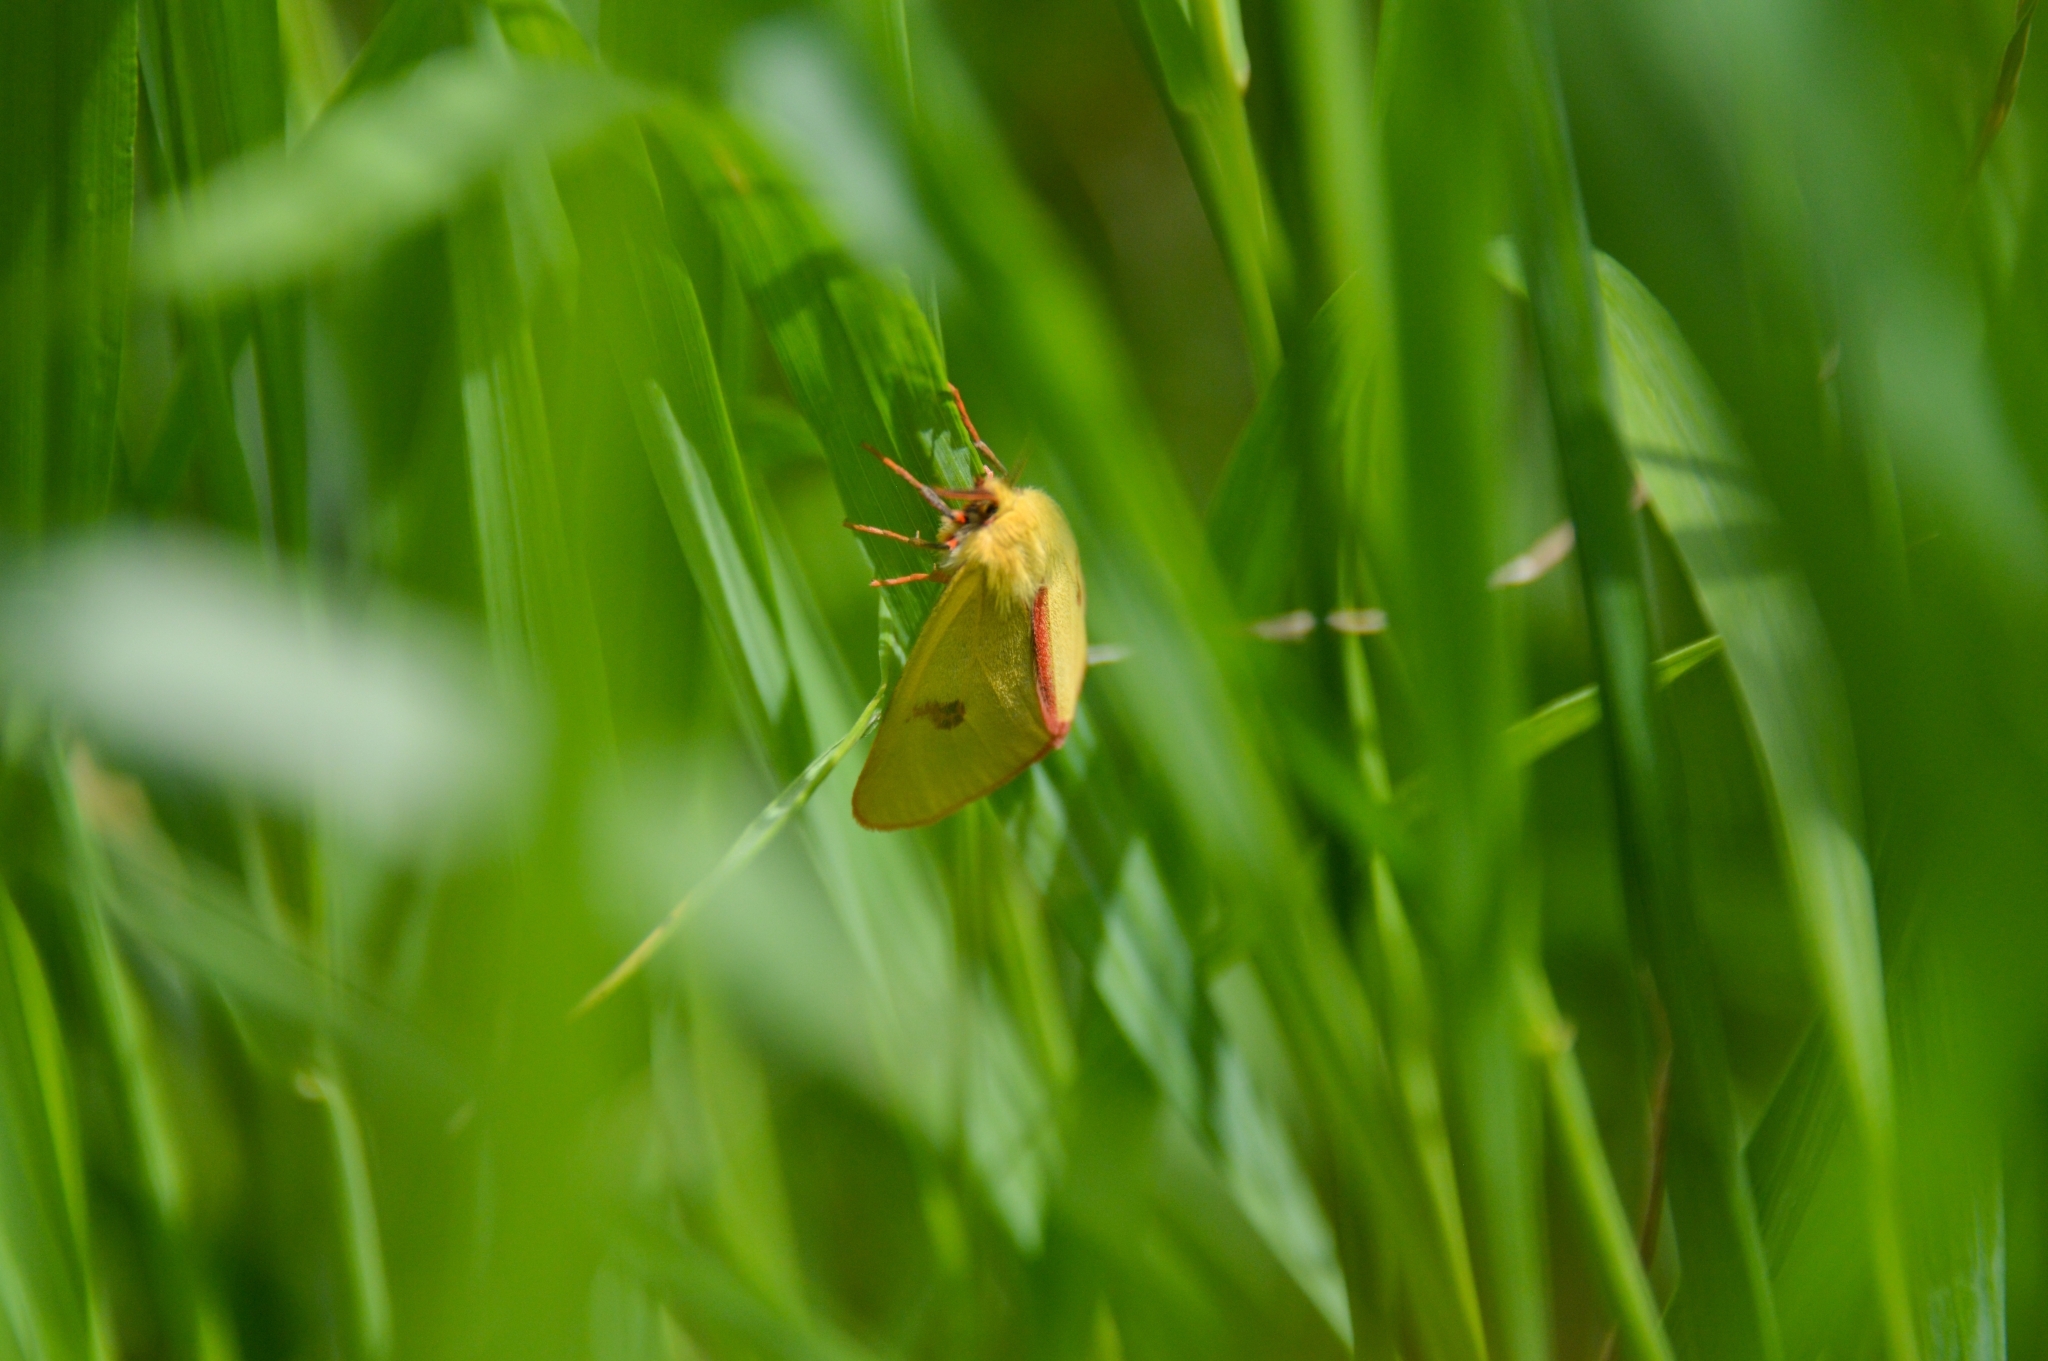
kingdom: Animalia
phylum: Arthropoda
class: Insecta
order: Lepidoptera
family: Erebidae
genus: Diacrisia
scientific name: Diacrisia sannio
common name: Clouded buff
